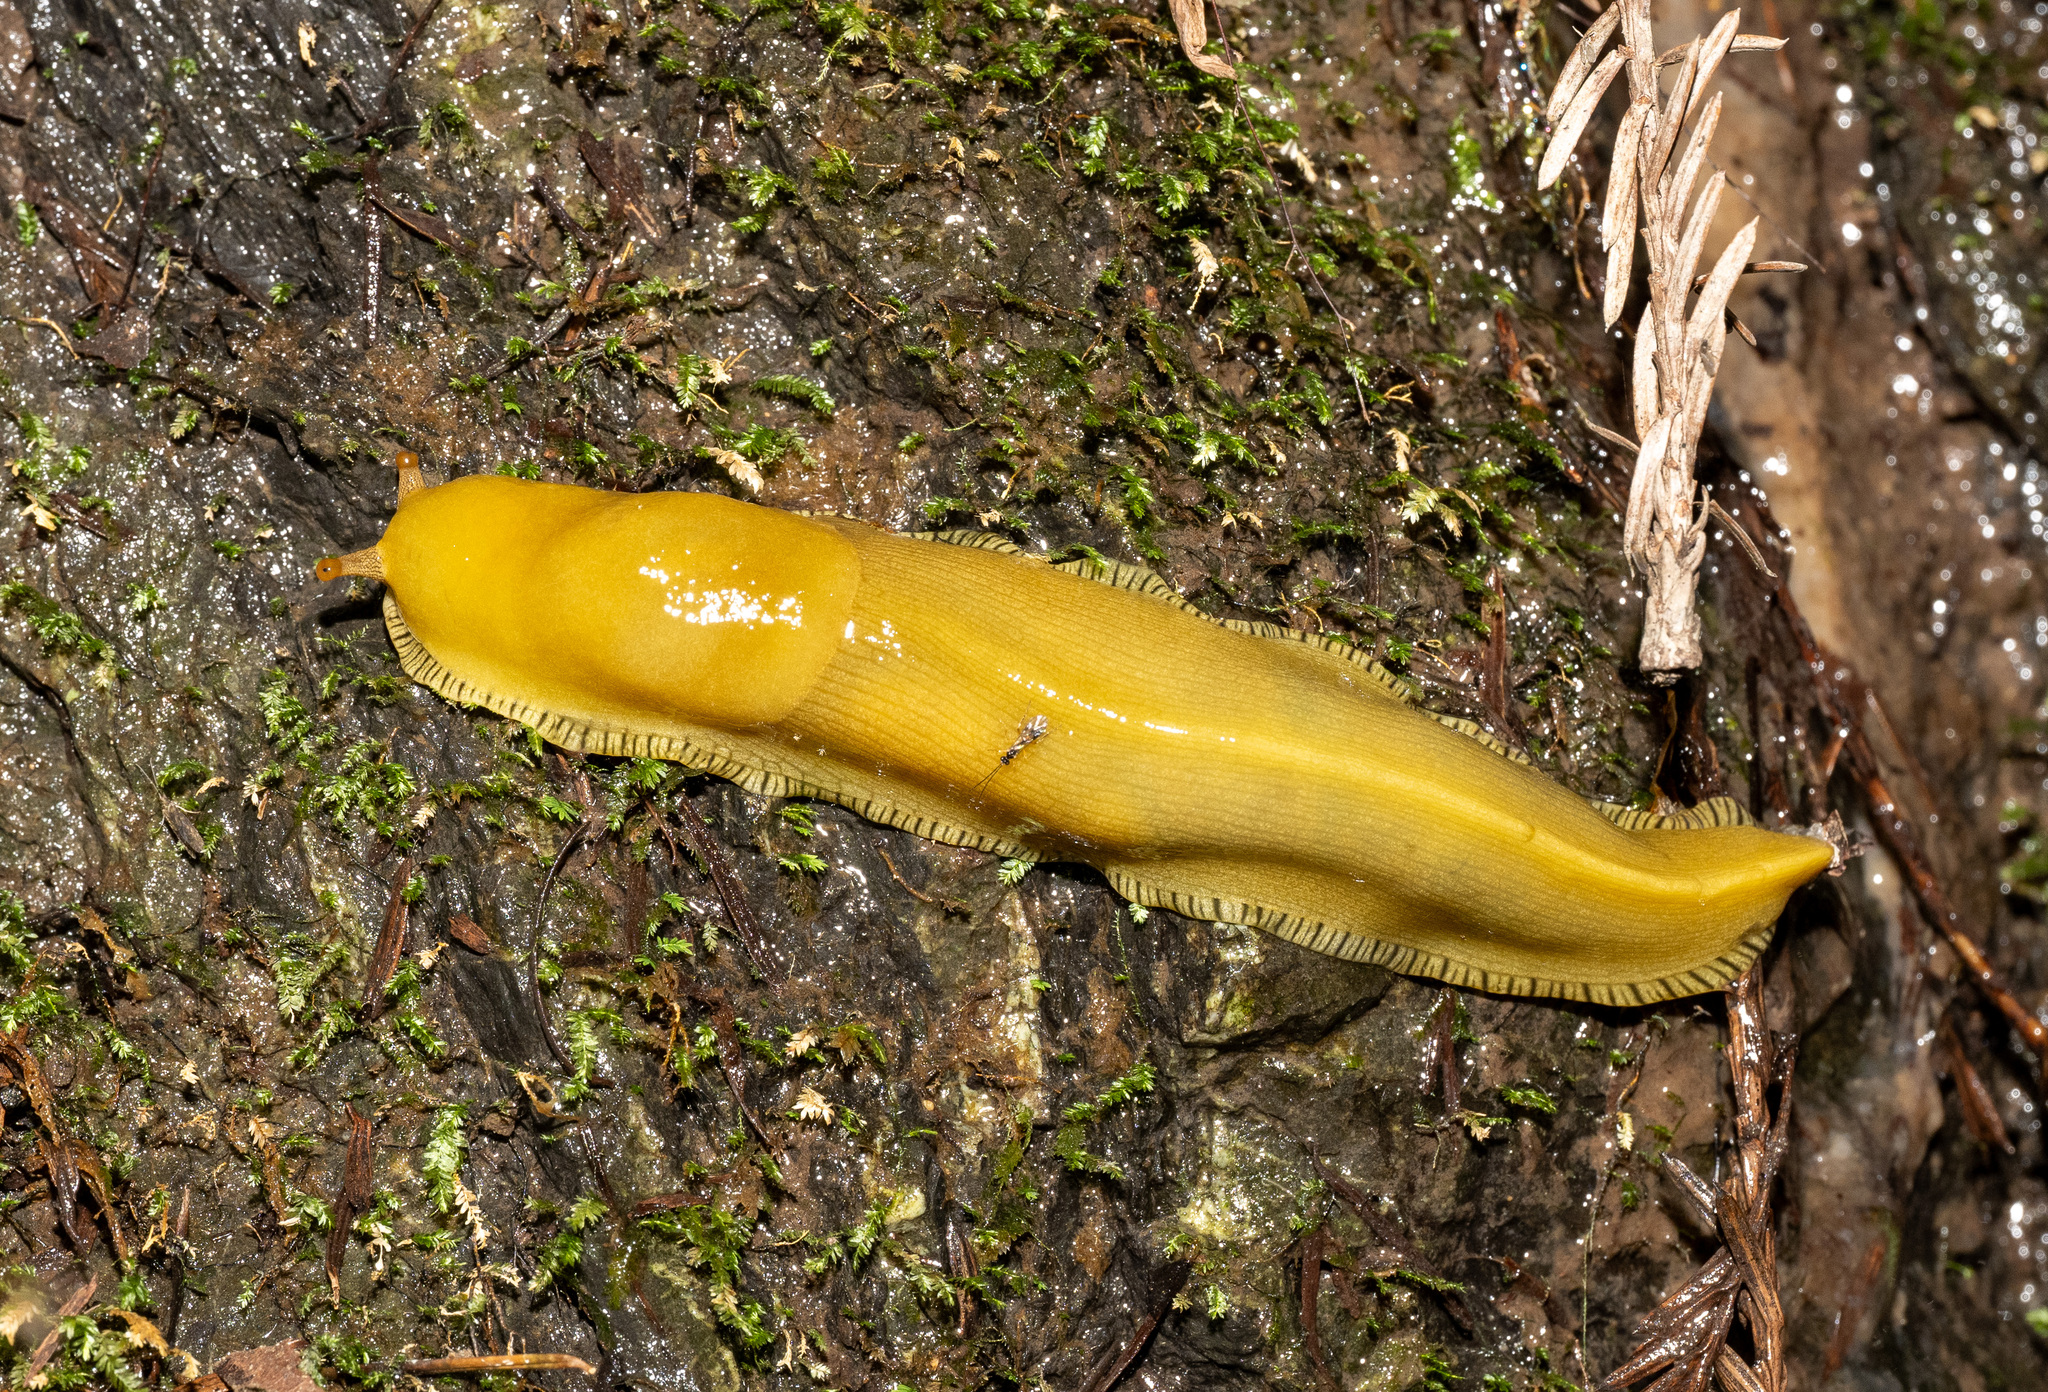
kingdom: Animalia
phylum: Mollusca
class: Gastropoda
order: Stylommatophora
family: Ariolimacidae
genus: Ariolimax
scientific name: Ariolimax buttoni
